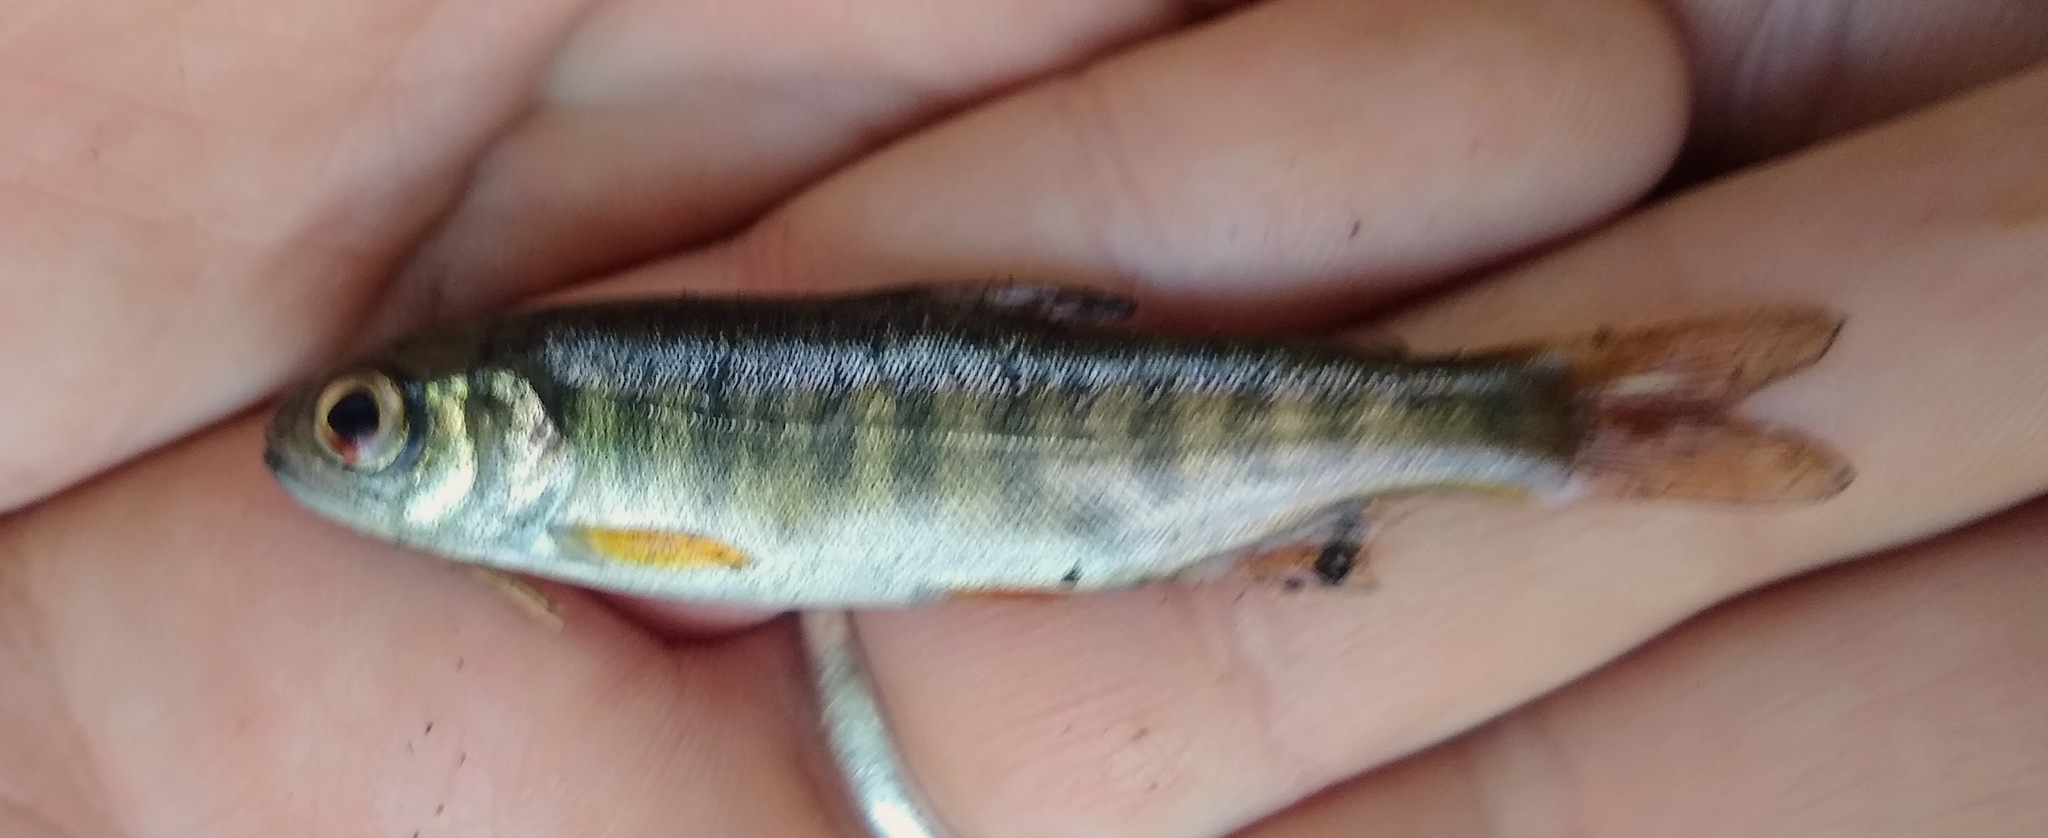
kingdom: Animalia
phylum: Chordata
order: Salmoniformes
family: Salmonidae
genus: Oncorhynchus
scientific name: Oncorhynchus kisutch
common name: Coho salmon
